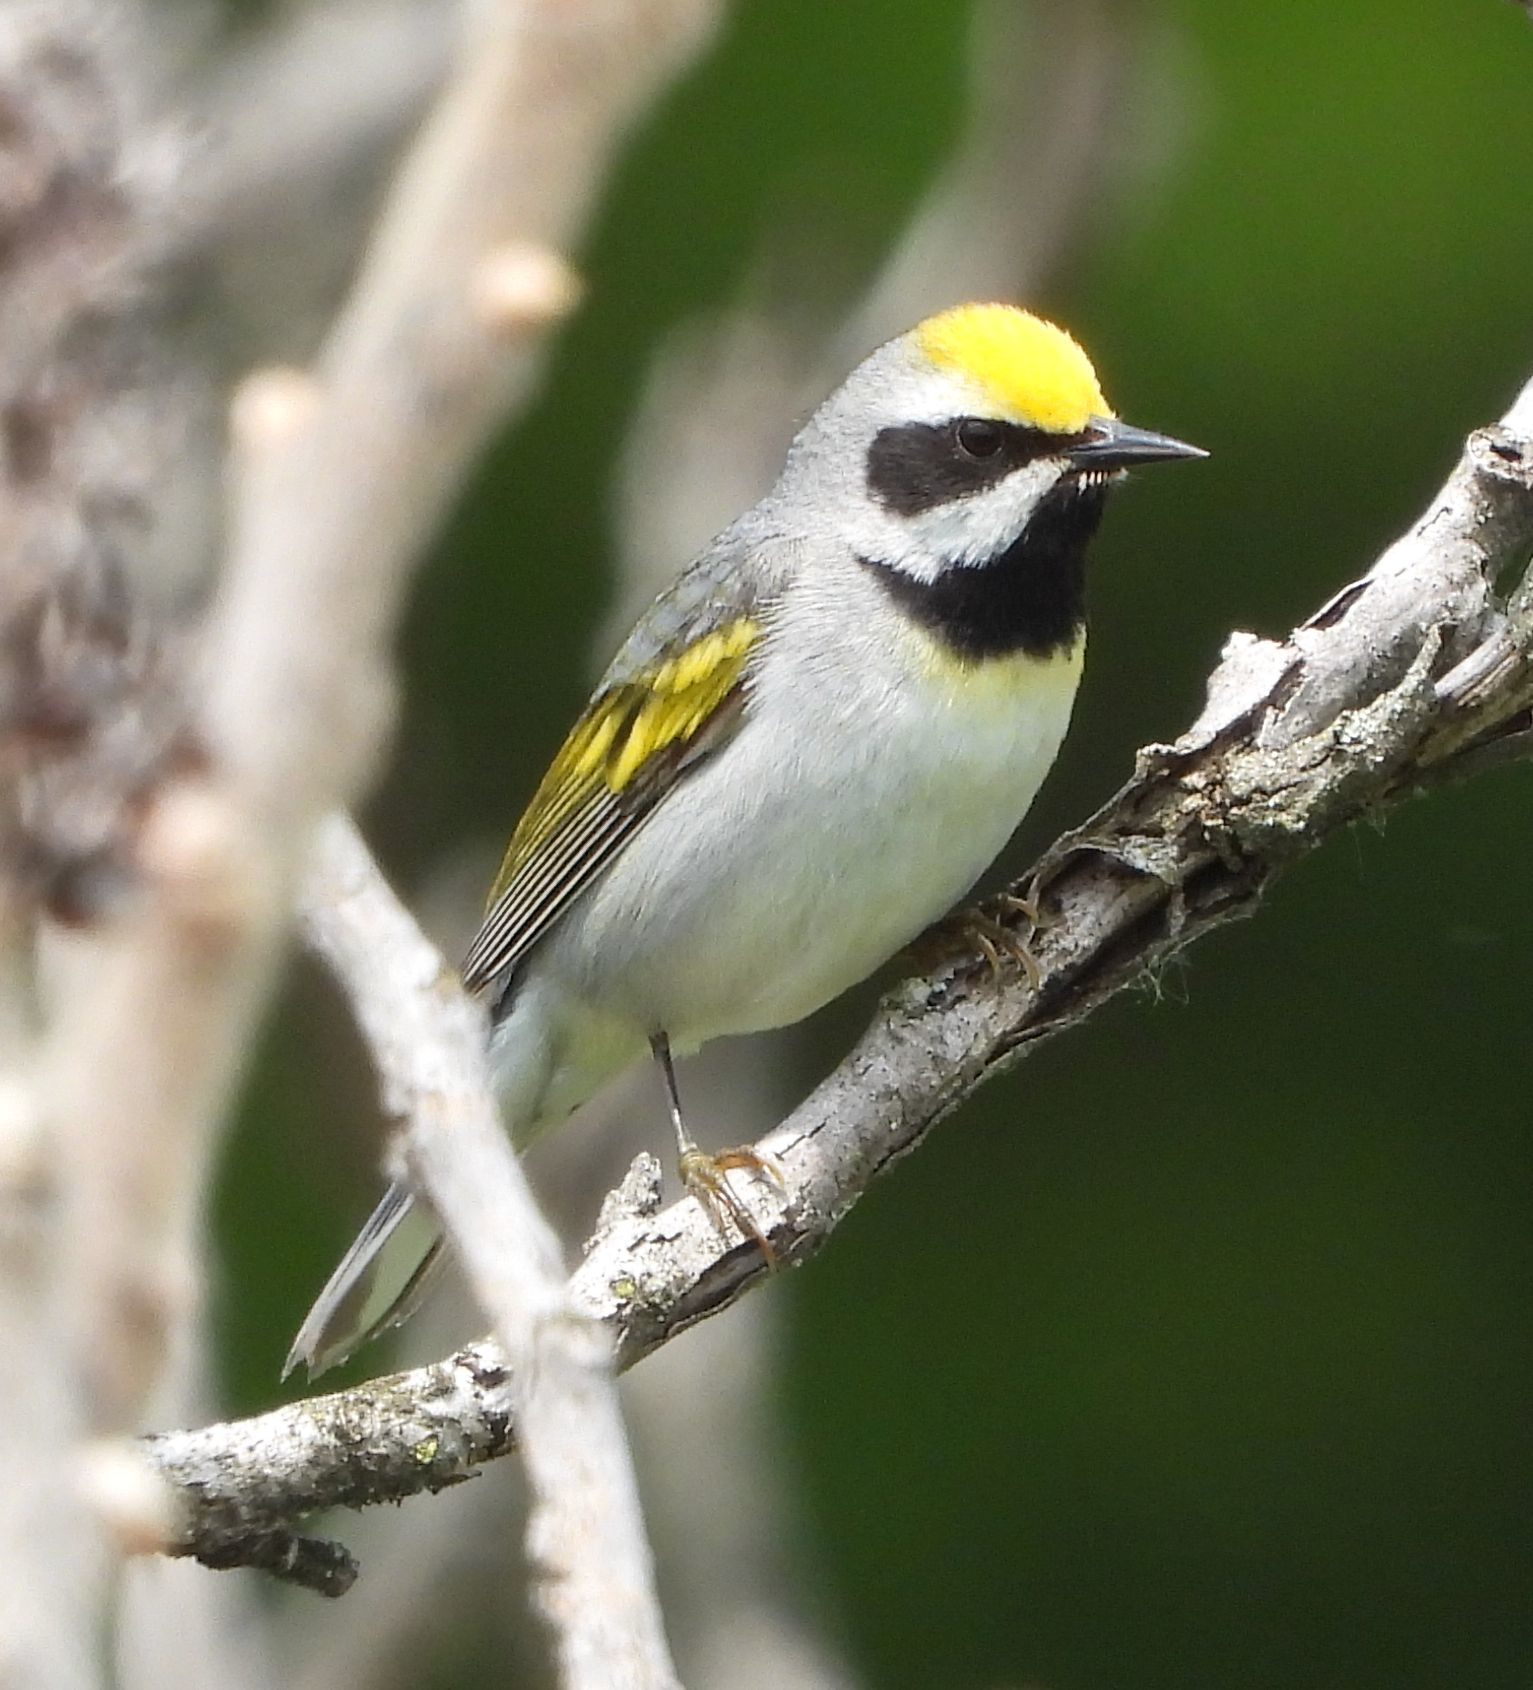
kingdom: Animalia
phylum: Chordata
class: Aves
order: Passeriformes
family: Parulidae
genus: Vermivora
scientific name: Vermivora chrysoptera
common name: Golden-winged warbler
